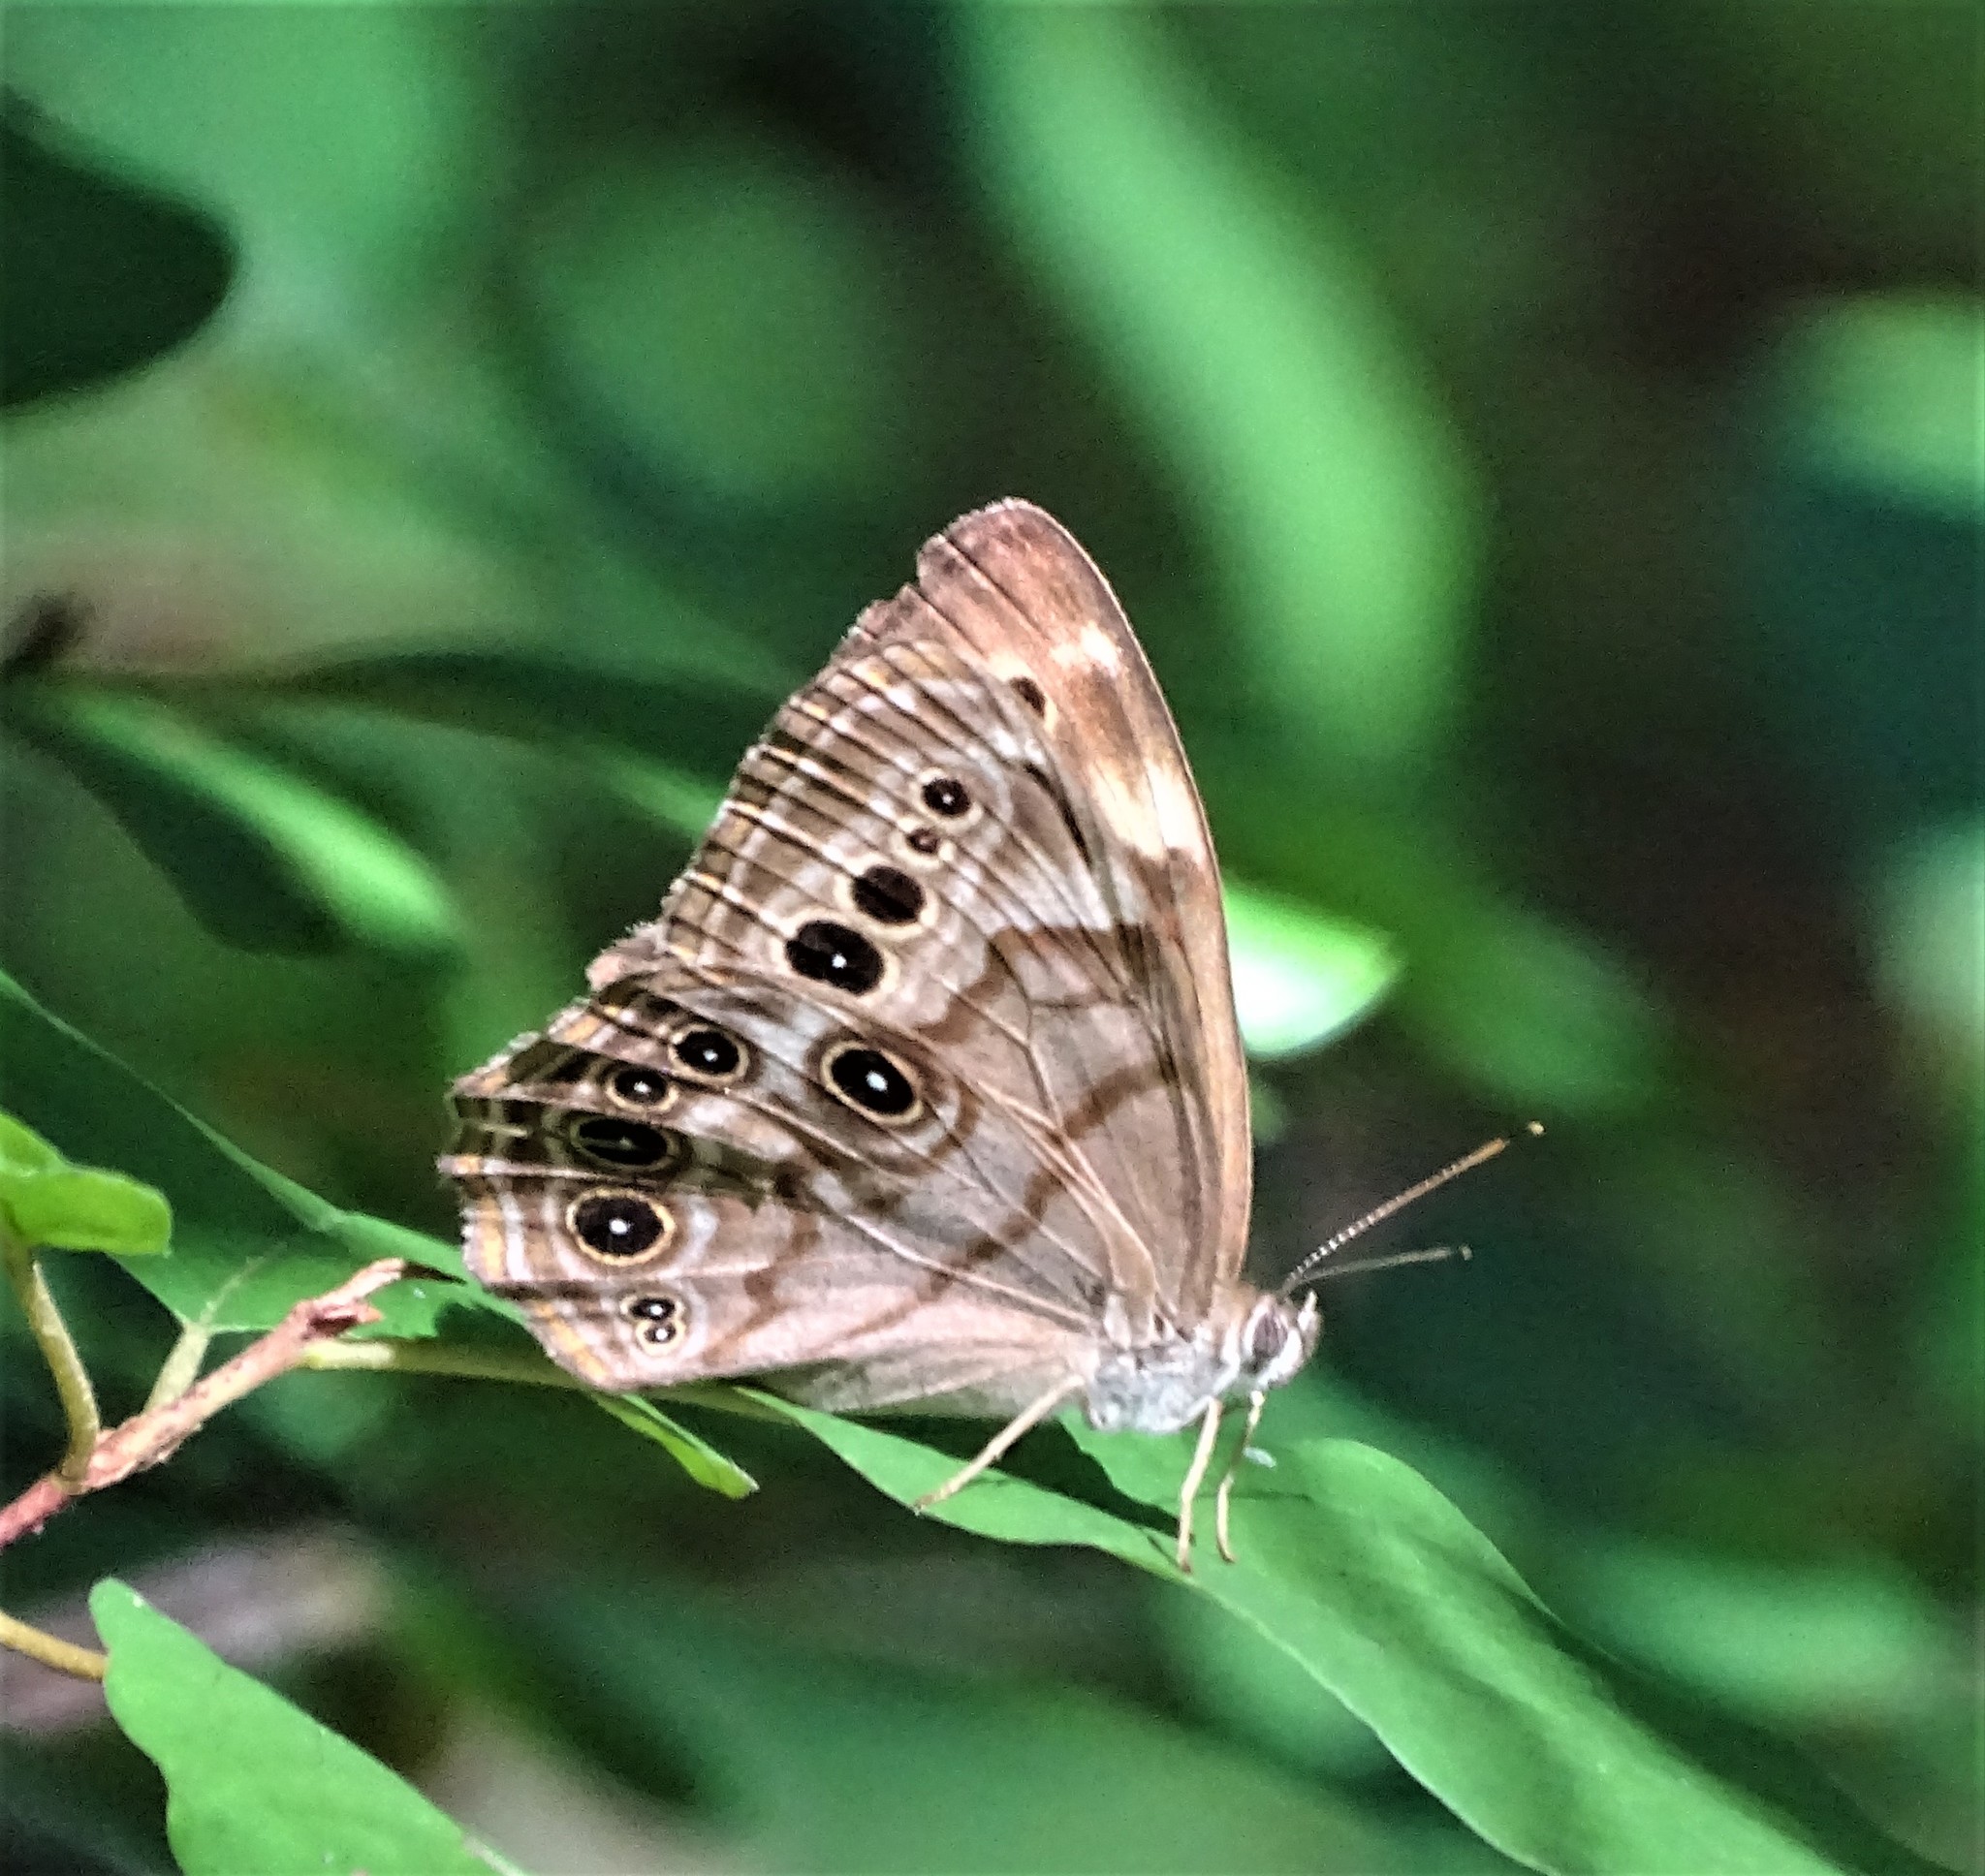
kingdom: Animalia
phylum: Arthropoda
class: Insecta
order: Lepidoptera
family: Nymphalidae
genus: Lethe
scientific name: Lethe anthedon
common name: Northern pearly-eye
